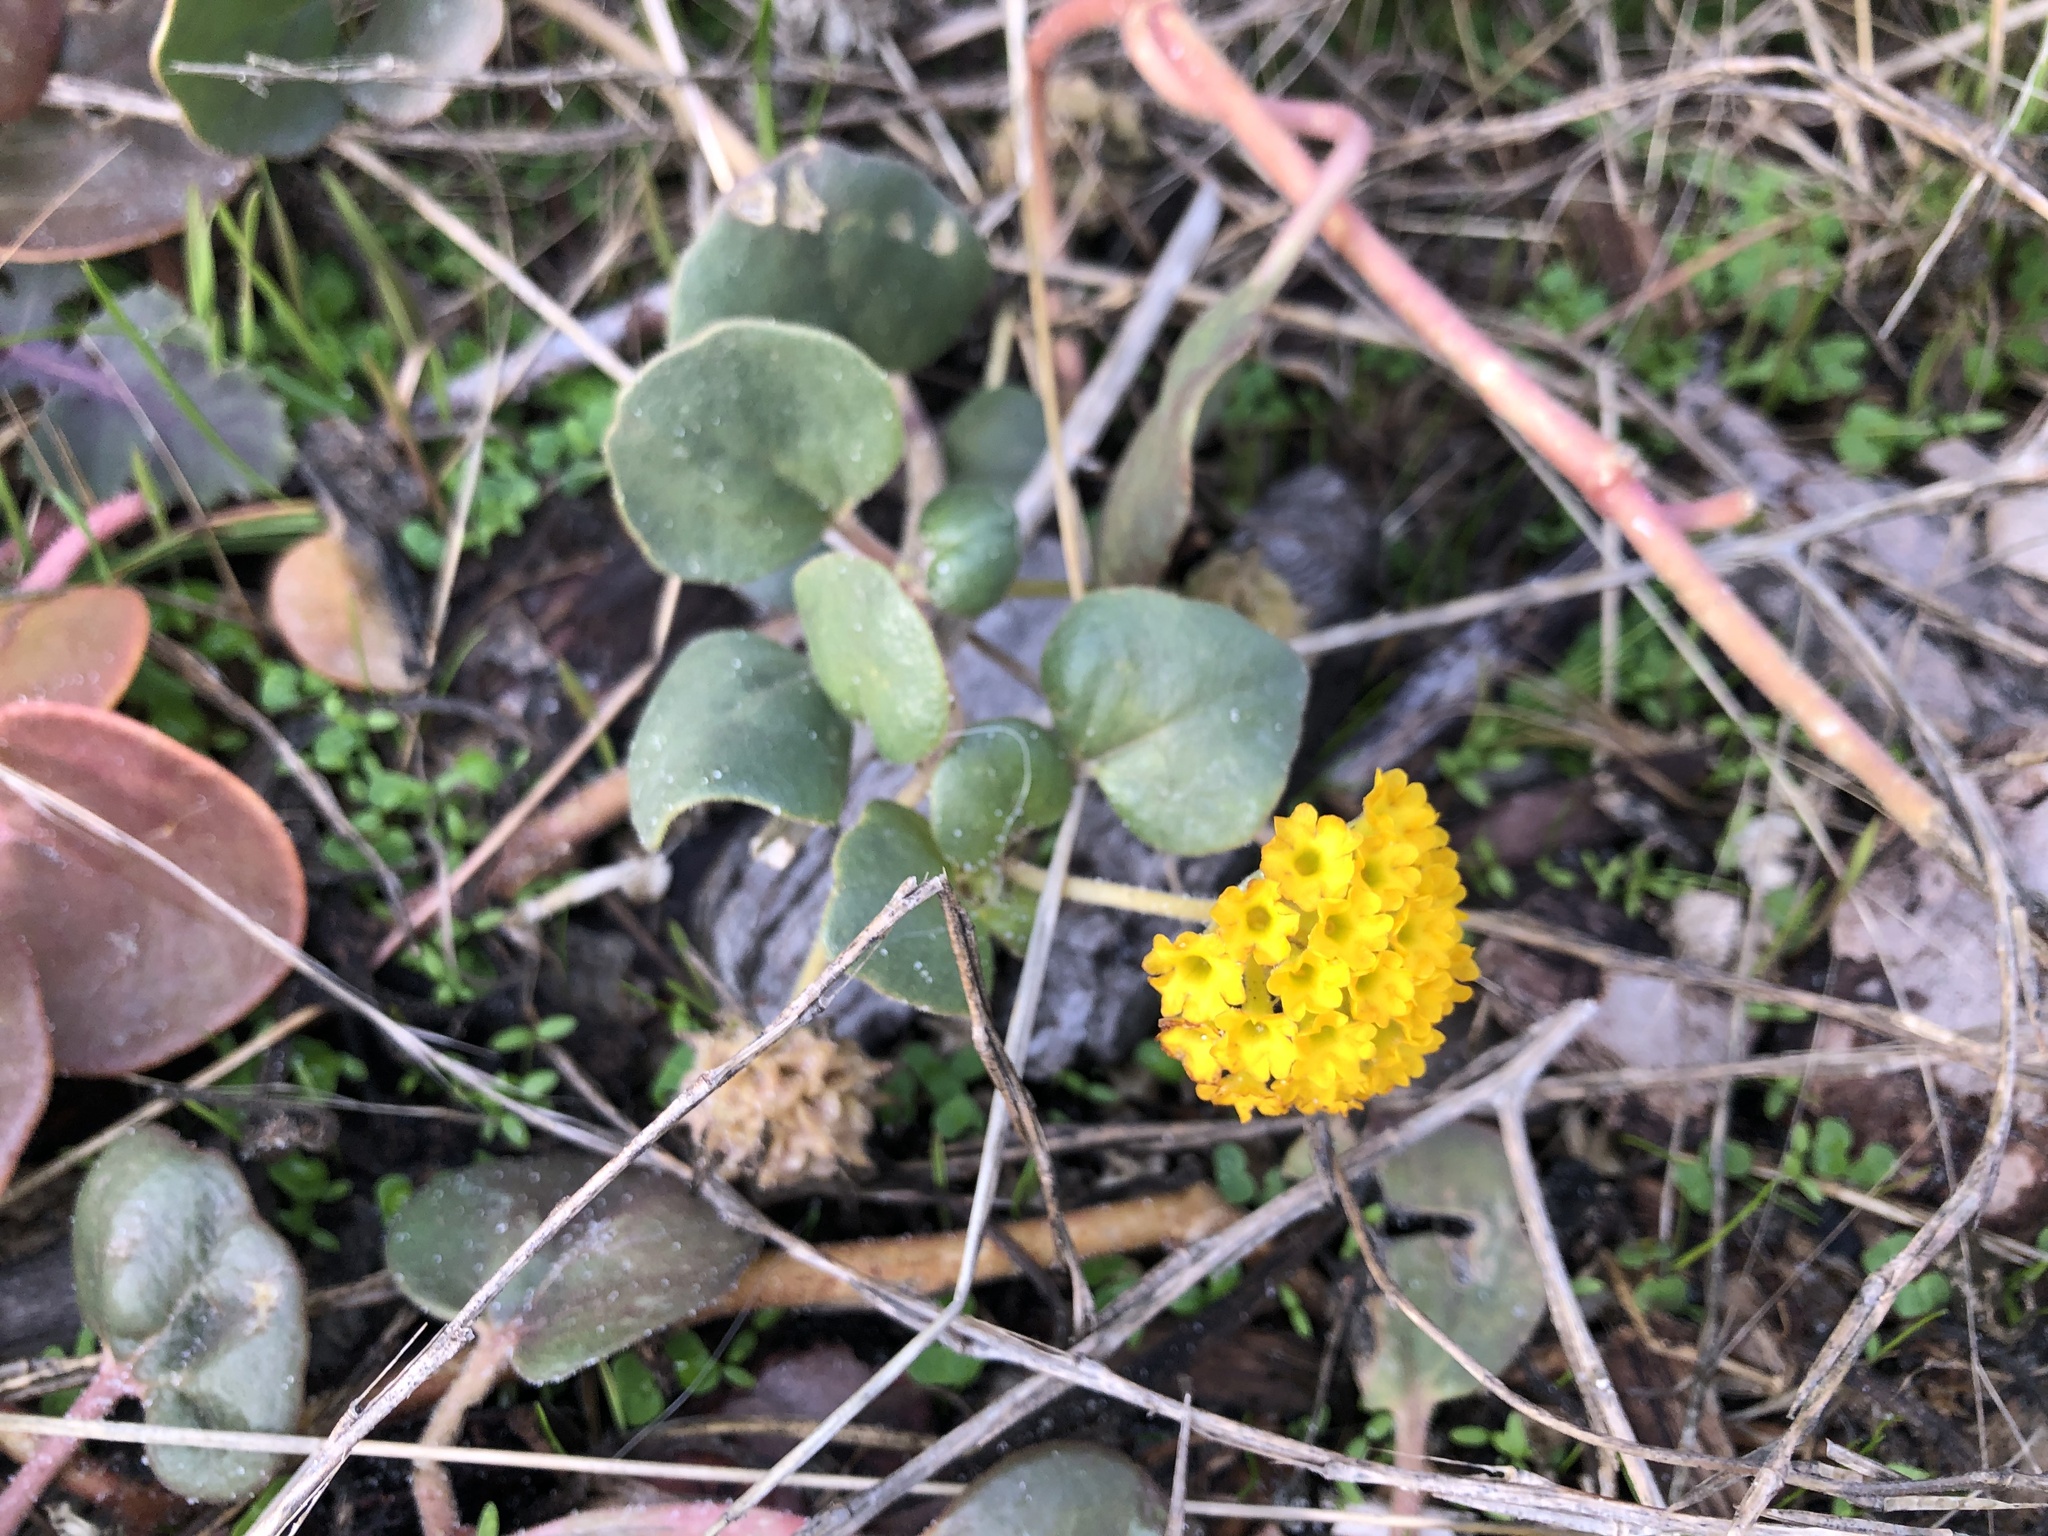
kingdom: Plantae
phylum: Tracheophyta
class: Magnoliopsida
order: Caryophyllales
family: Nyctaginaceae
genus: Abronia
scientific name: Abronia latifolia
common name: Yellow sand-verbena
